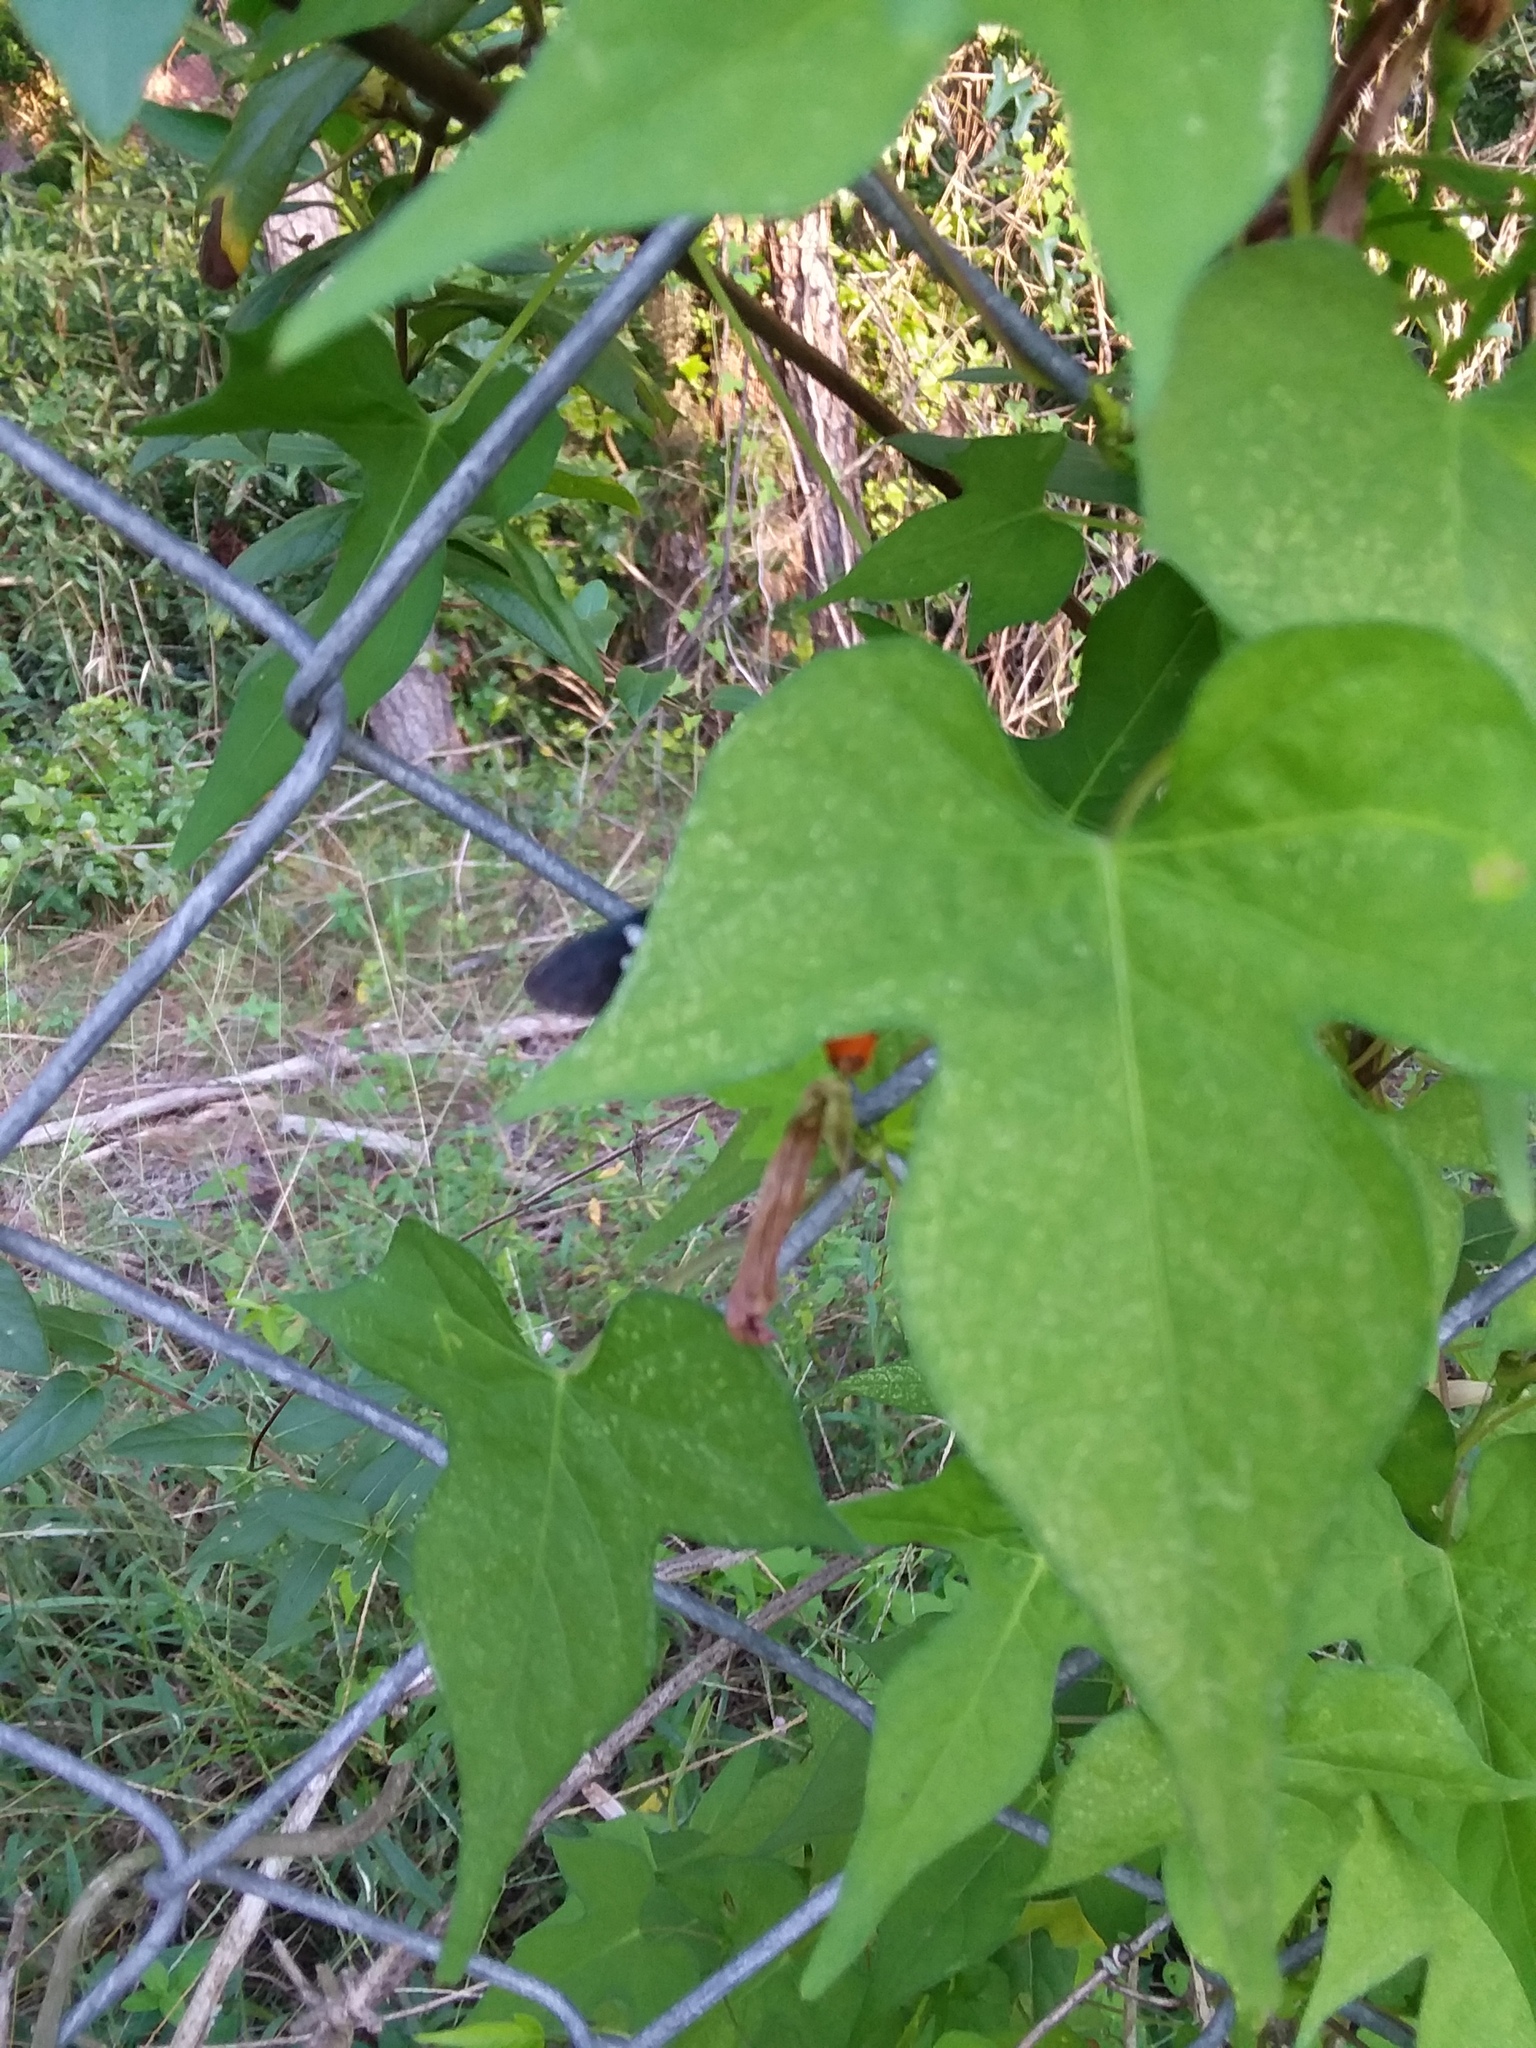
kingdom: Animalia
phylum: Arthropoda
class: Insecta
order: Lepidoptera
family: Erebidae
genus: Syntomeida
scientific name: Syntomeida epilais
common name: Polka-dot wasp moth
